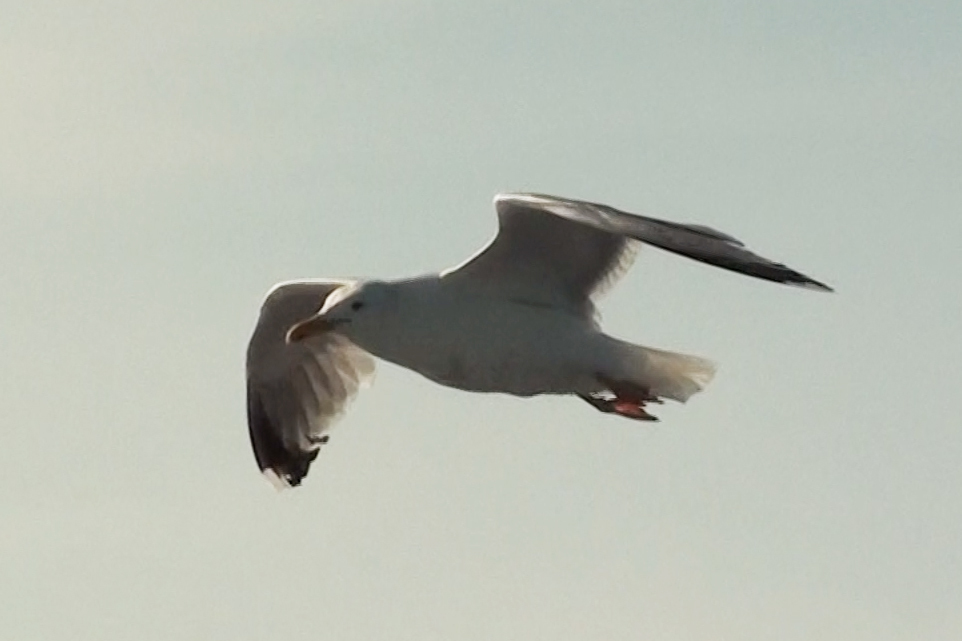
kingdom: Animalia
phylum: Chordata
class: Aves
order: Charadriiformes
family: Laridae
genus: Larus
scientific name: Larus argentatus
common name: Herring gull
